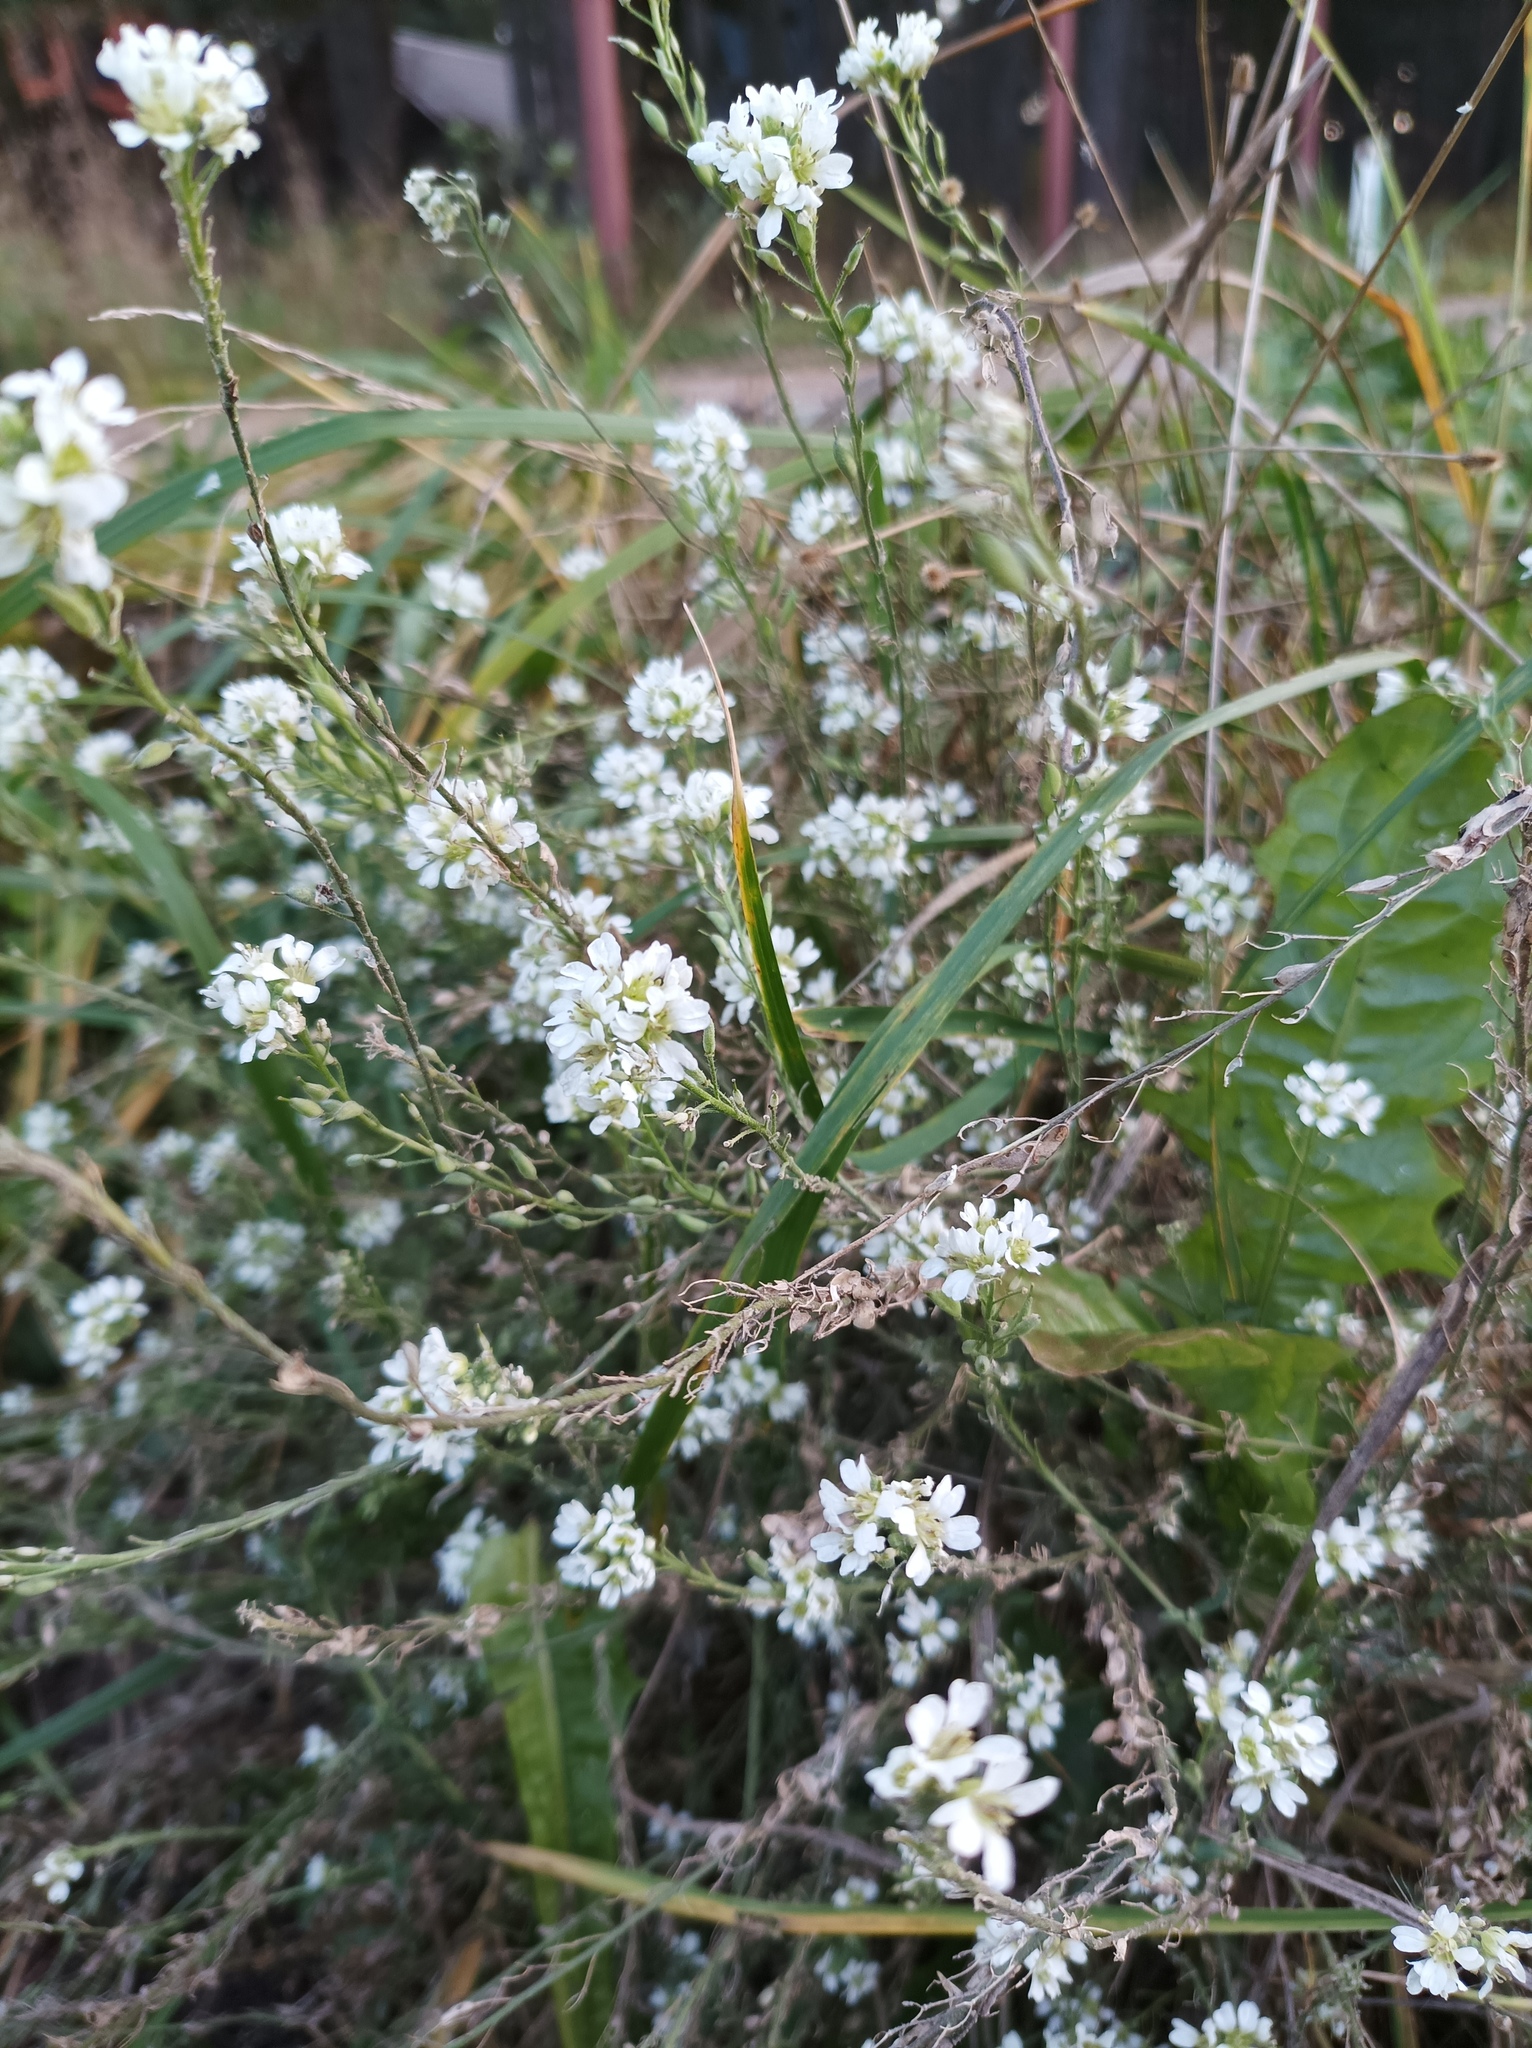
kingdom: Plantae
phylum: Tracheophyta
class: Magnoliopsida
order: Brassicales
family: Brassicaceae
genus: Berteroa
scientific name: Berteroa incana
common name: Hoary alison
